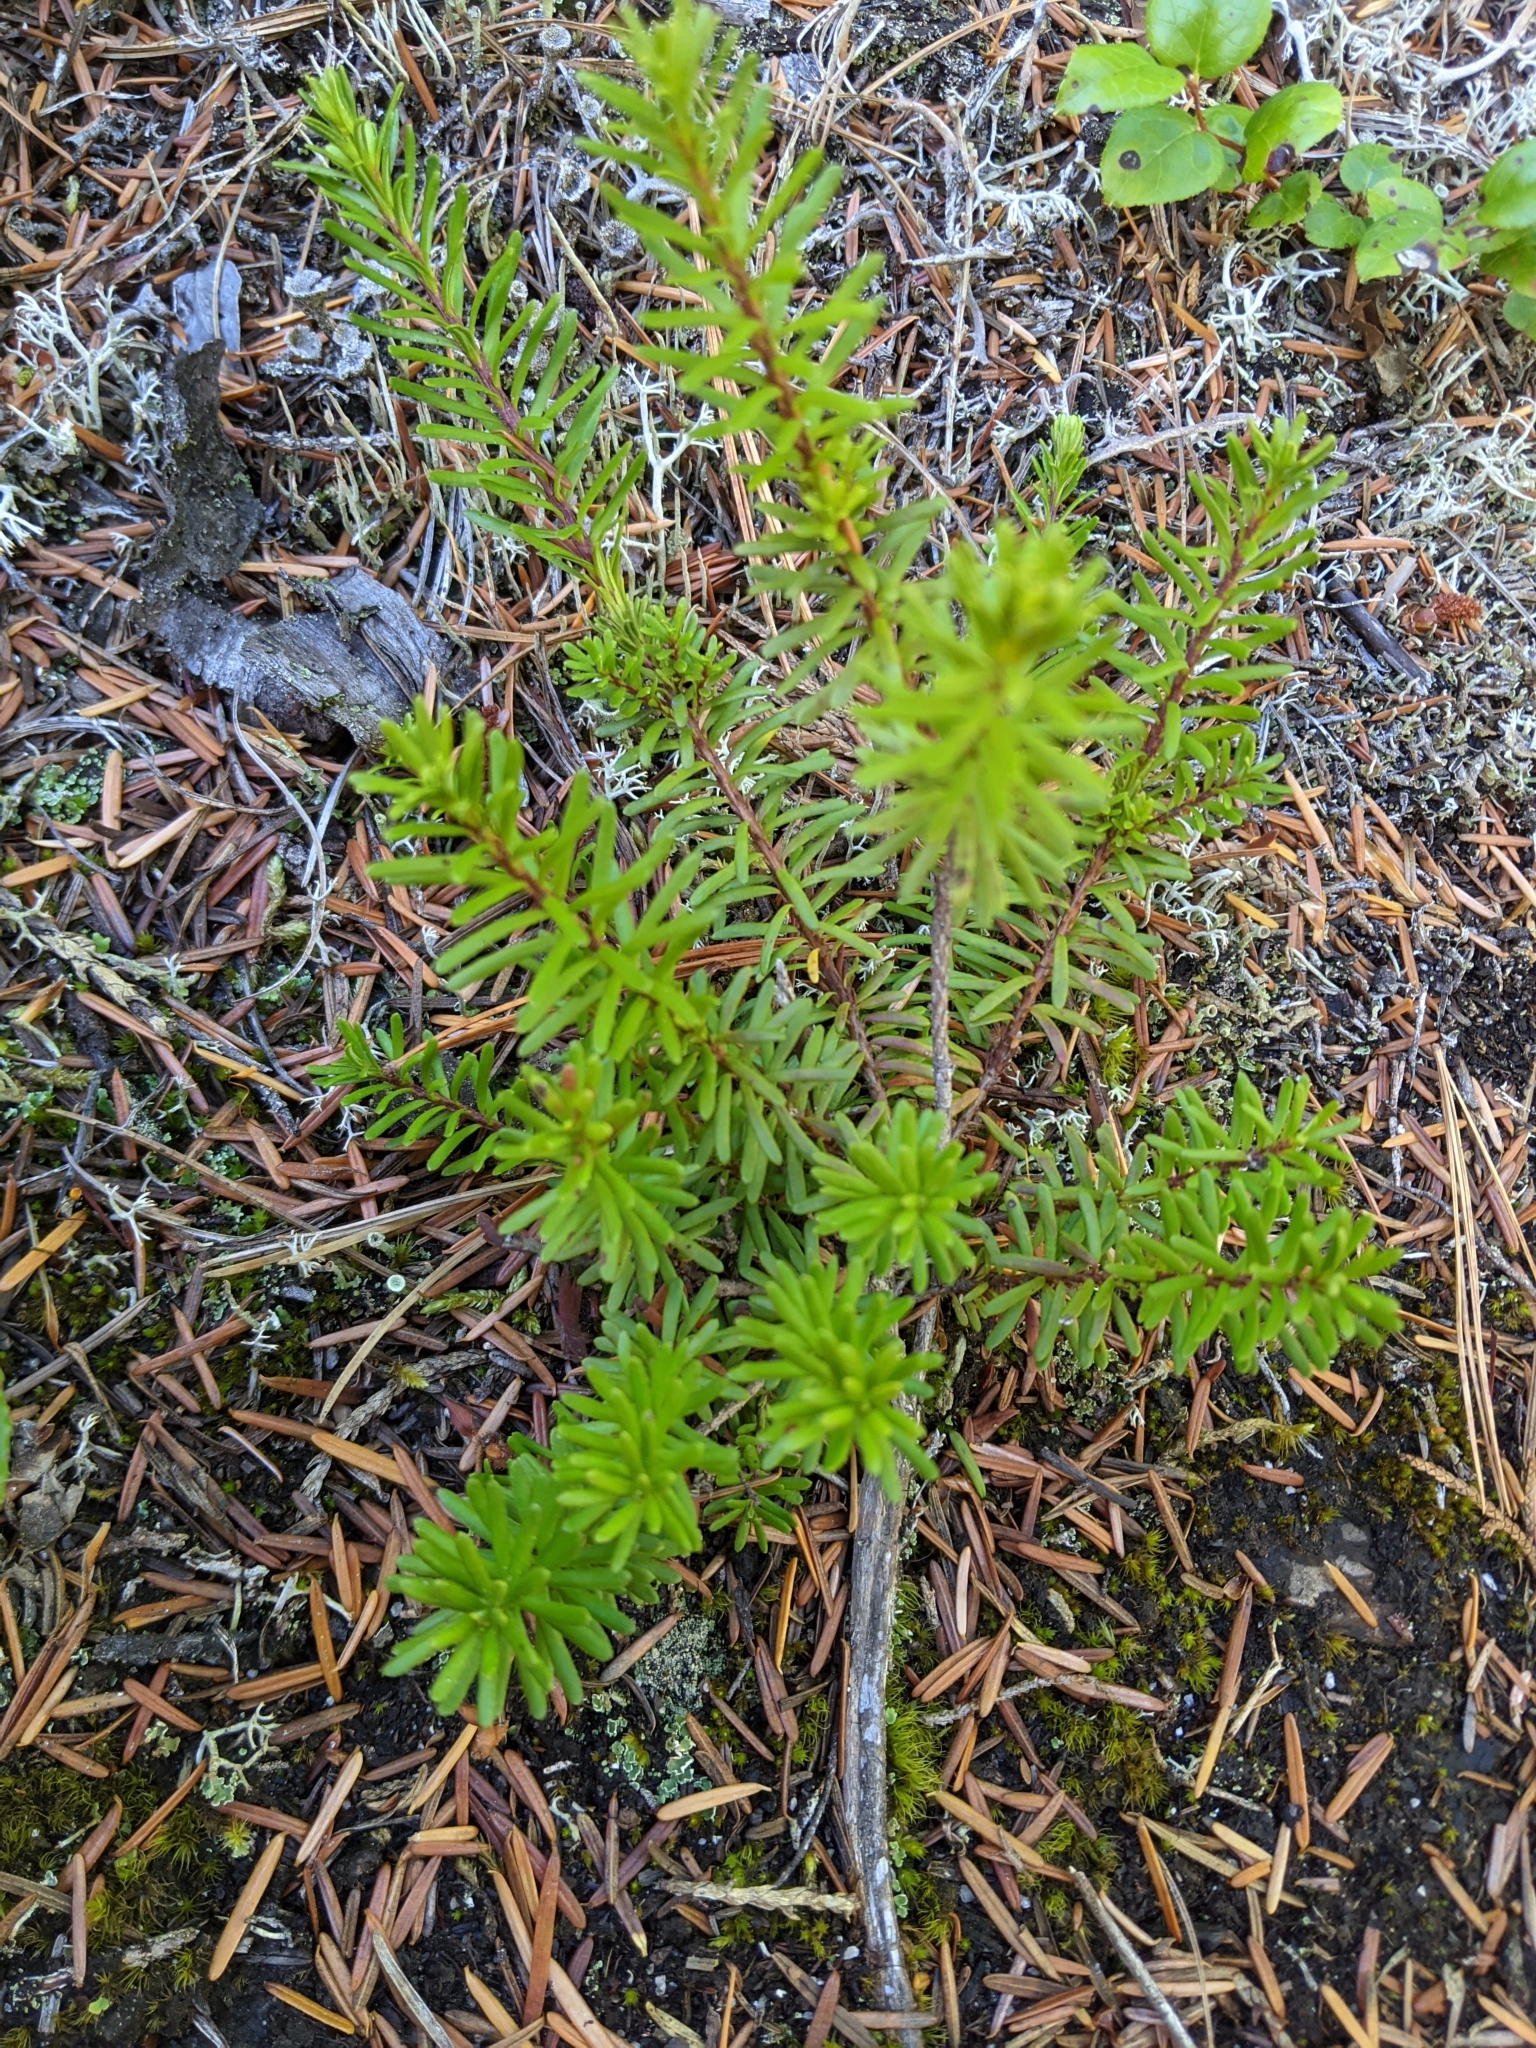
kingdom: Plantae
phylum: Tracheophyta
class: Magnoliopsida
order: Ericales
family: Ericaceae
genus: Phyllodoce
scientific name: Phyllodoce empetriformis
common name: Pink mountain heather
